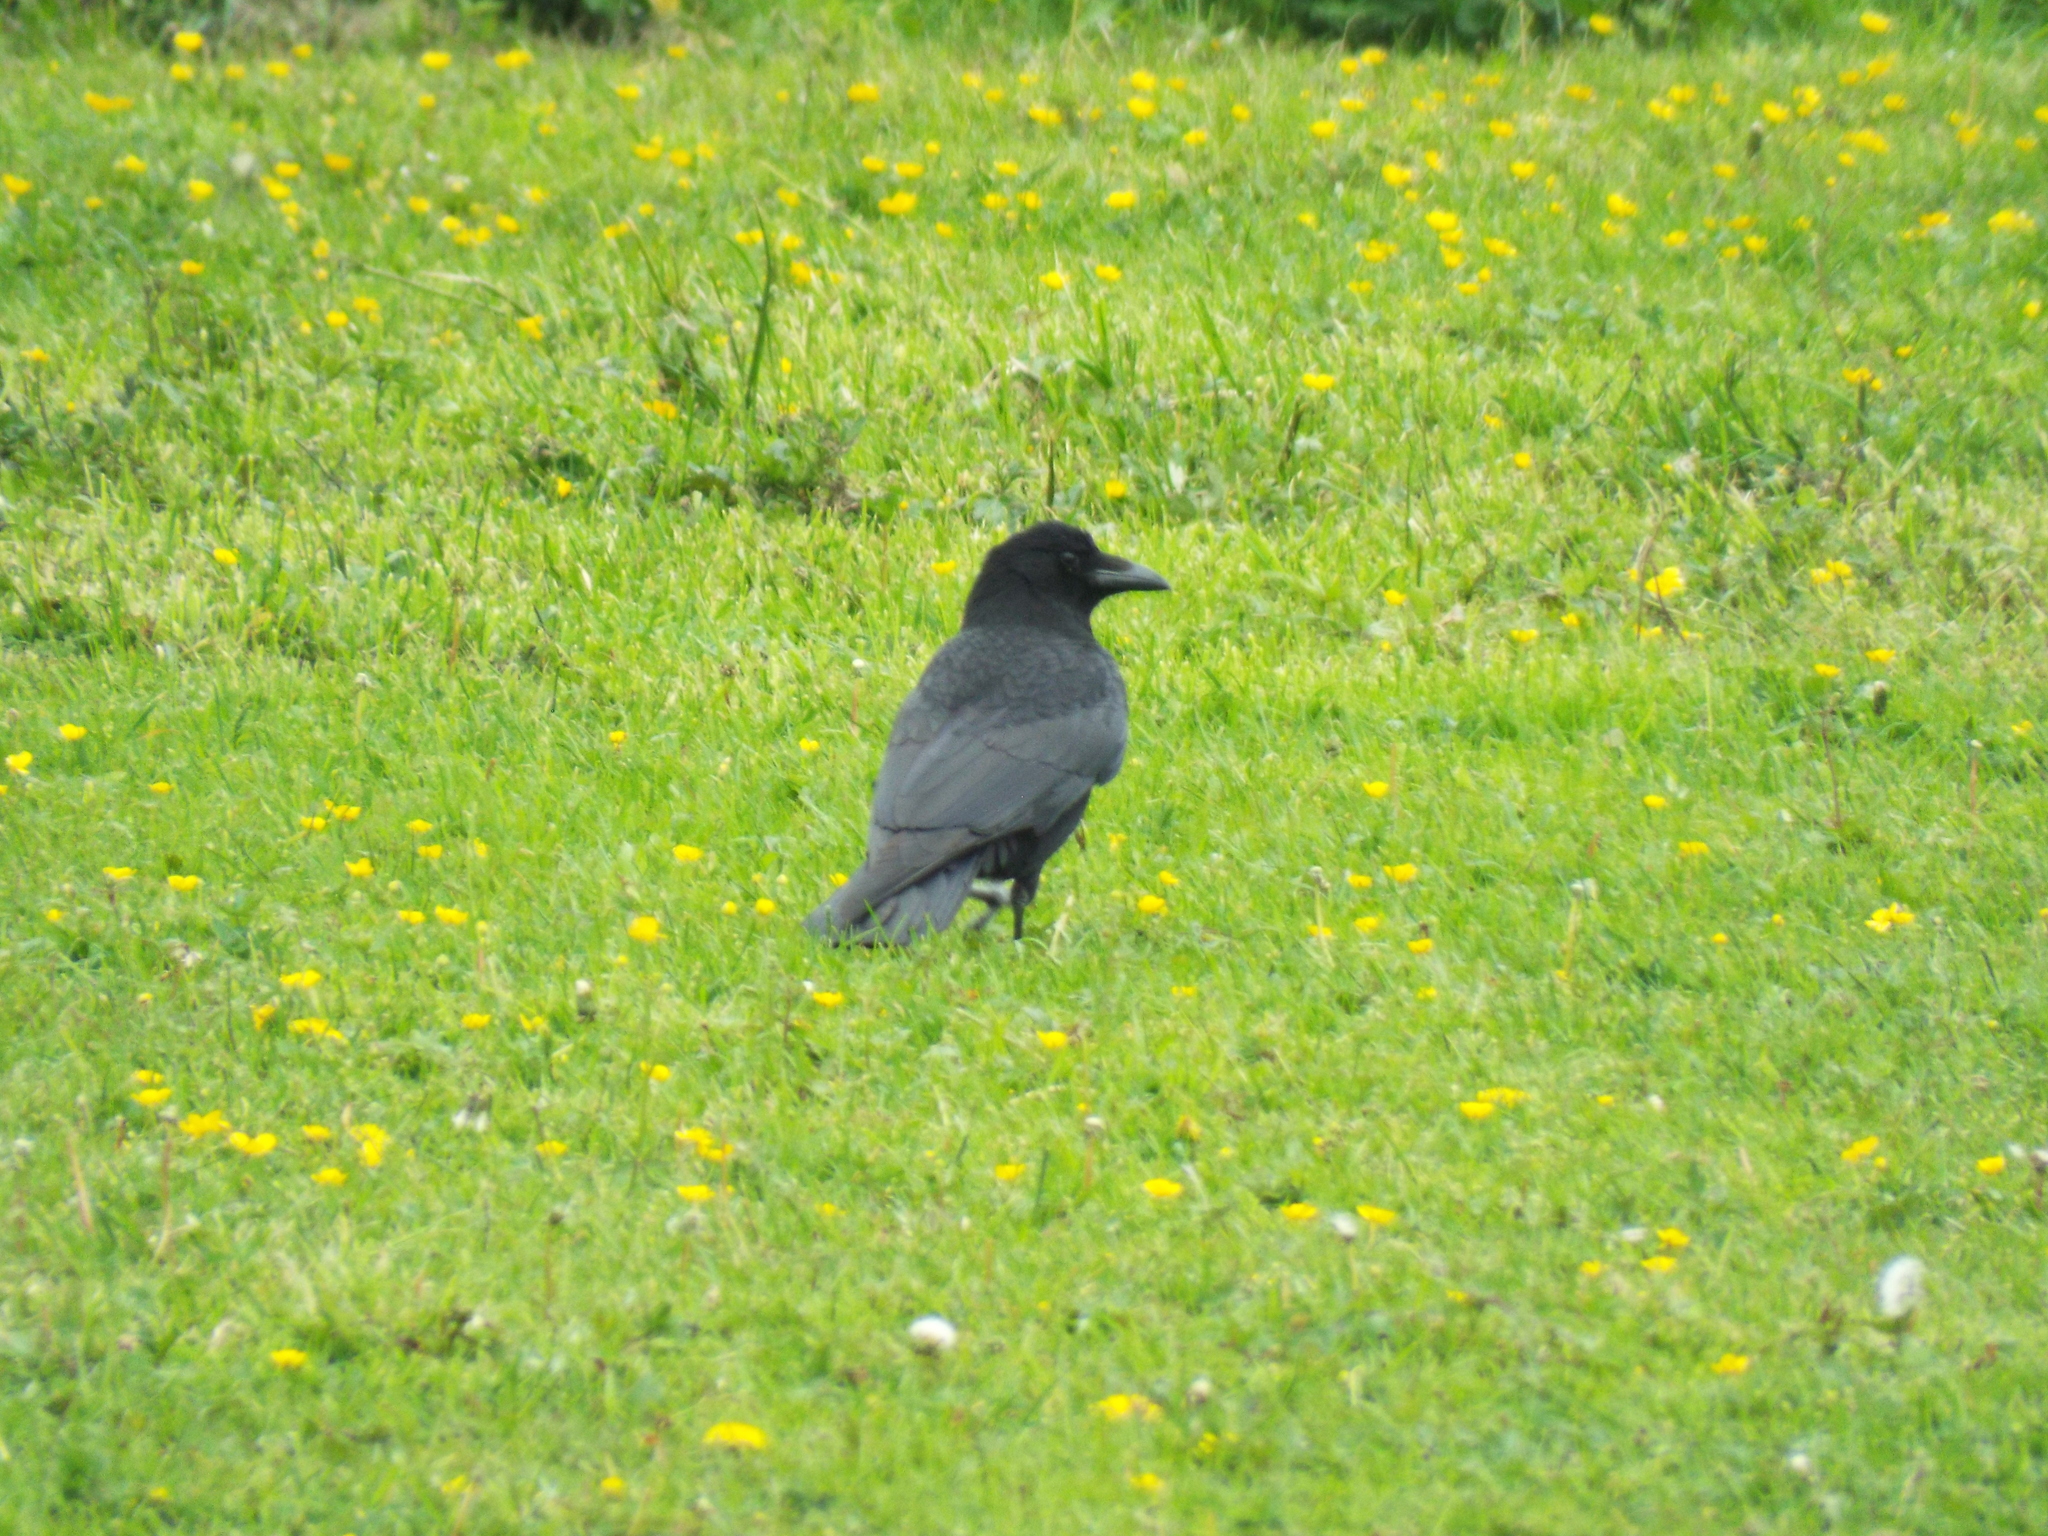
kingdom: Animalia
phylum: Chordata
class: Aves
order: Passeriformes
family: Corvidae
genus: Corvus
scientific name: Corvus corone
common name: Carrion crow
